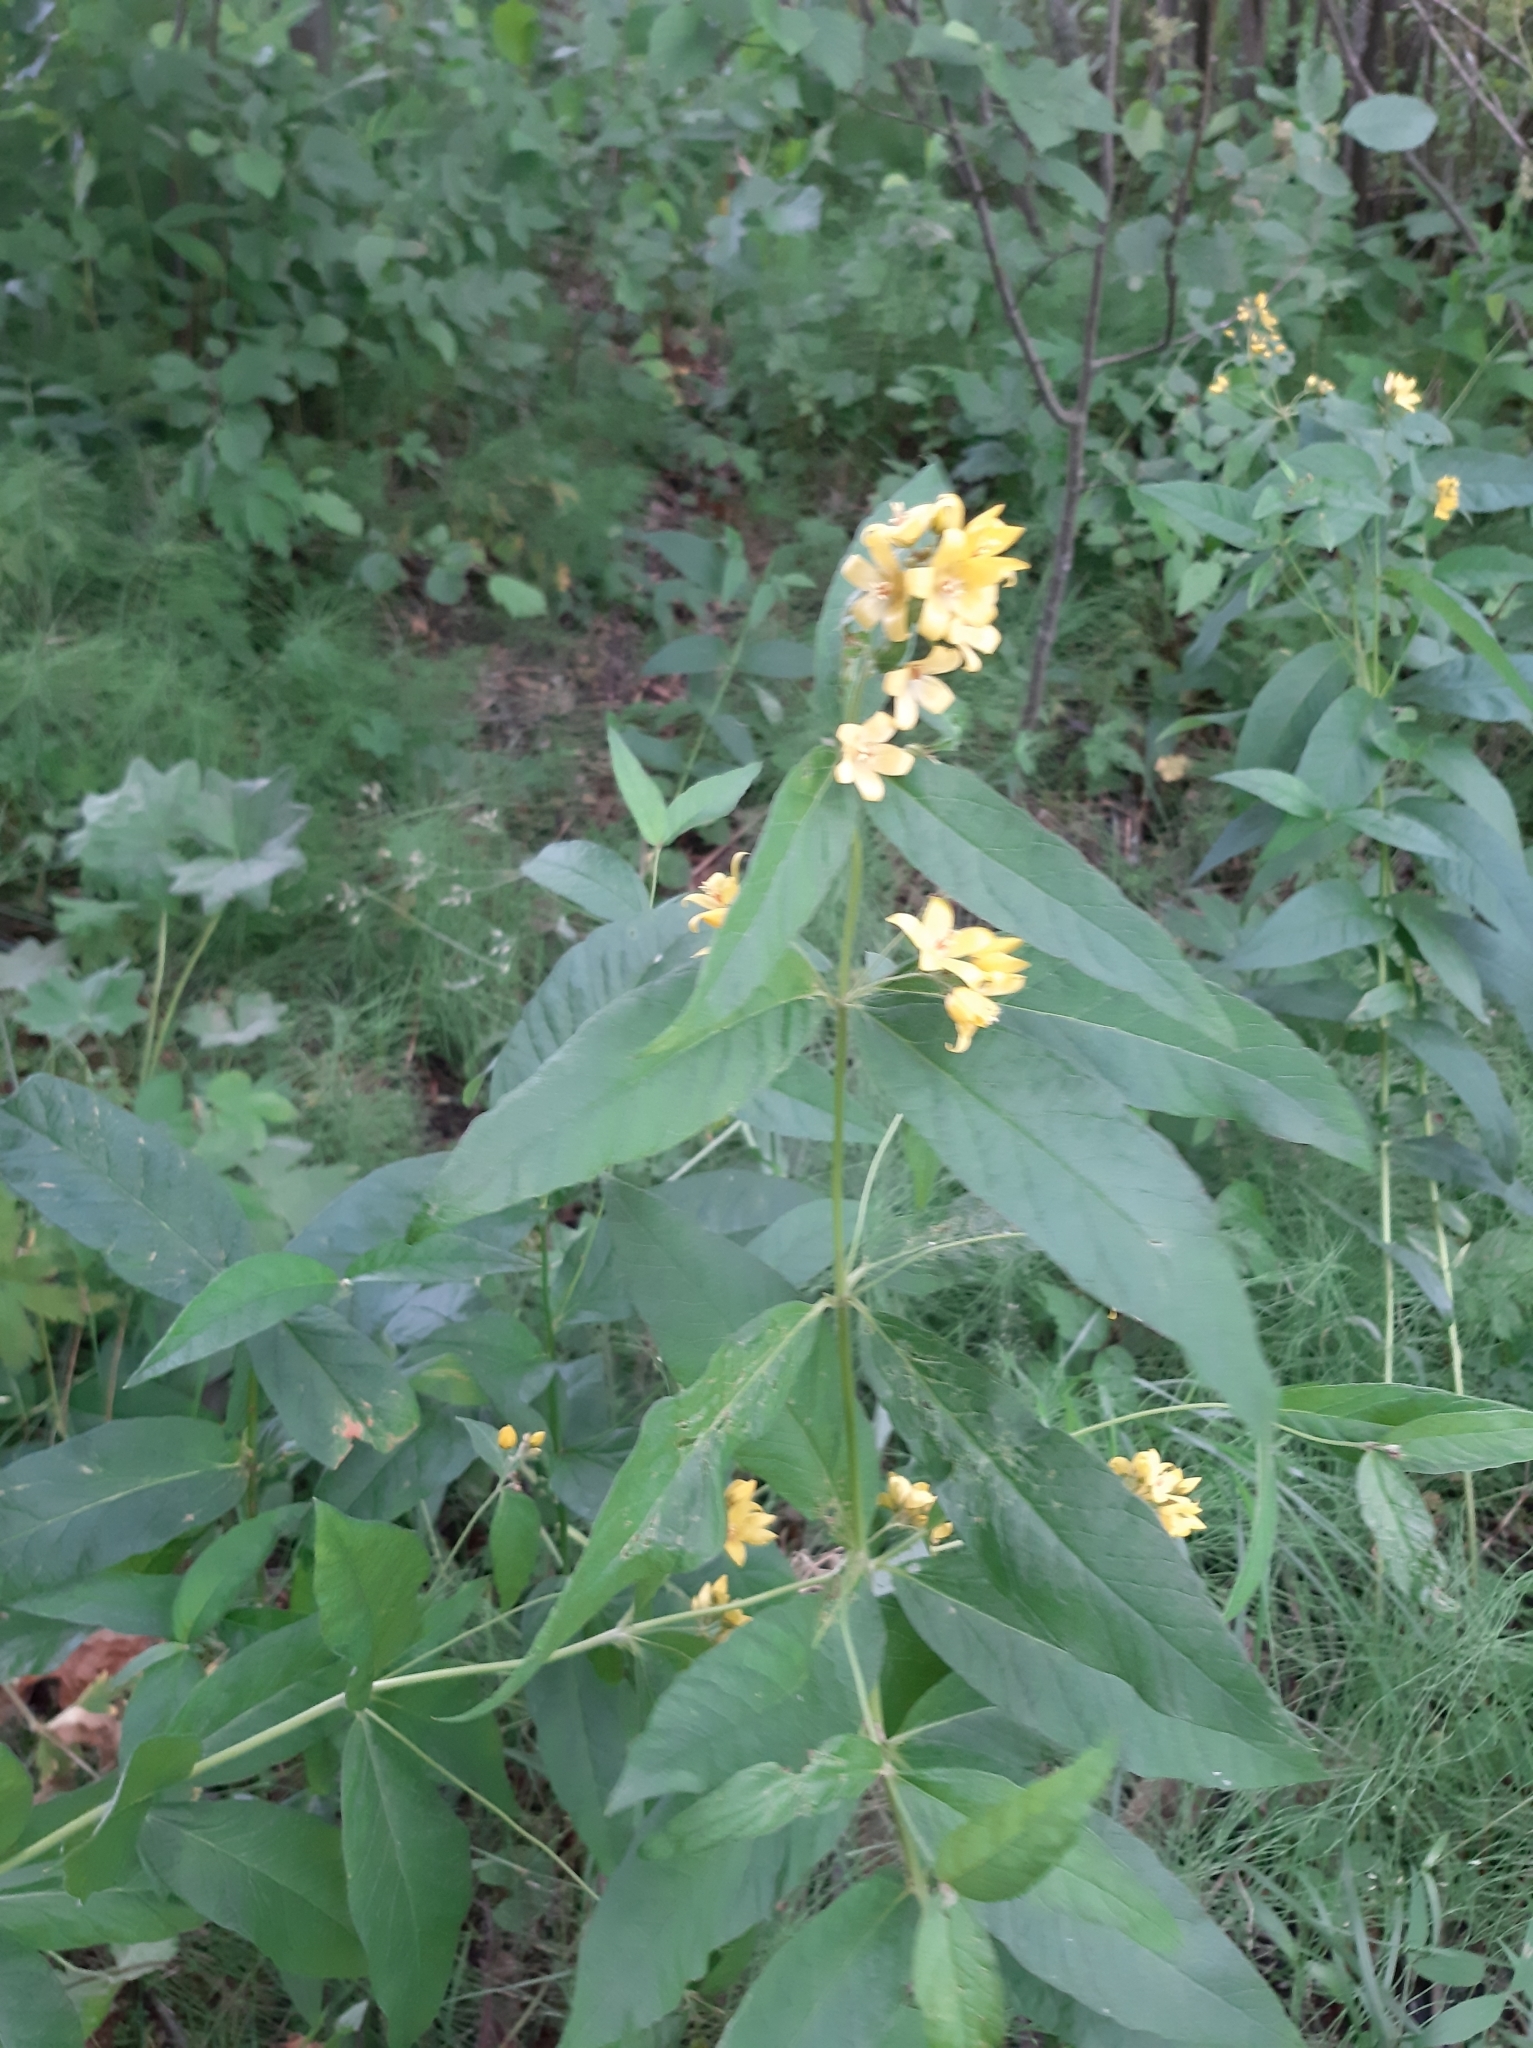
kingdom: Plantae
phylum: Tracheophyta
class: Magnoliopsida
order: Ericales
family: Primulaceae
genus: Lysimachia
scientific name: Lysimachia vulgaris
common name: Yellow loosestrife
